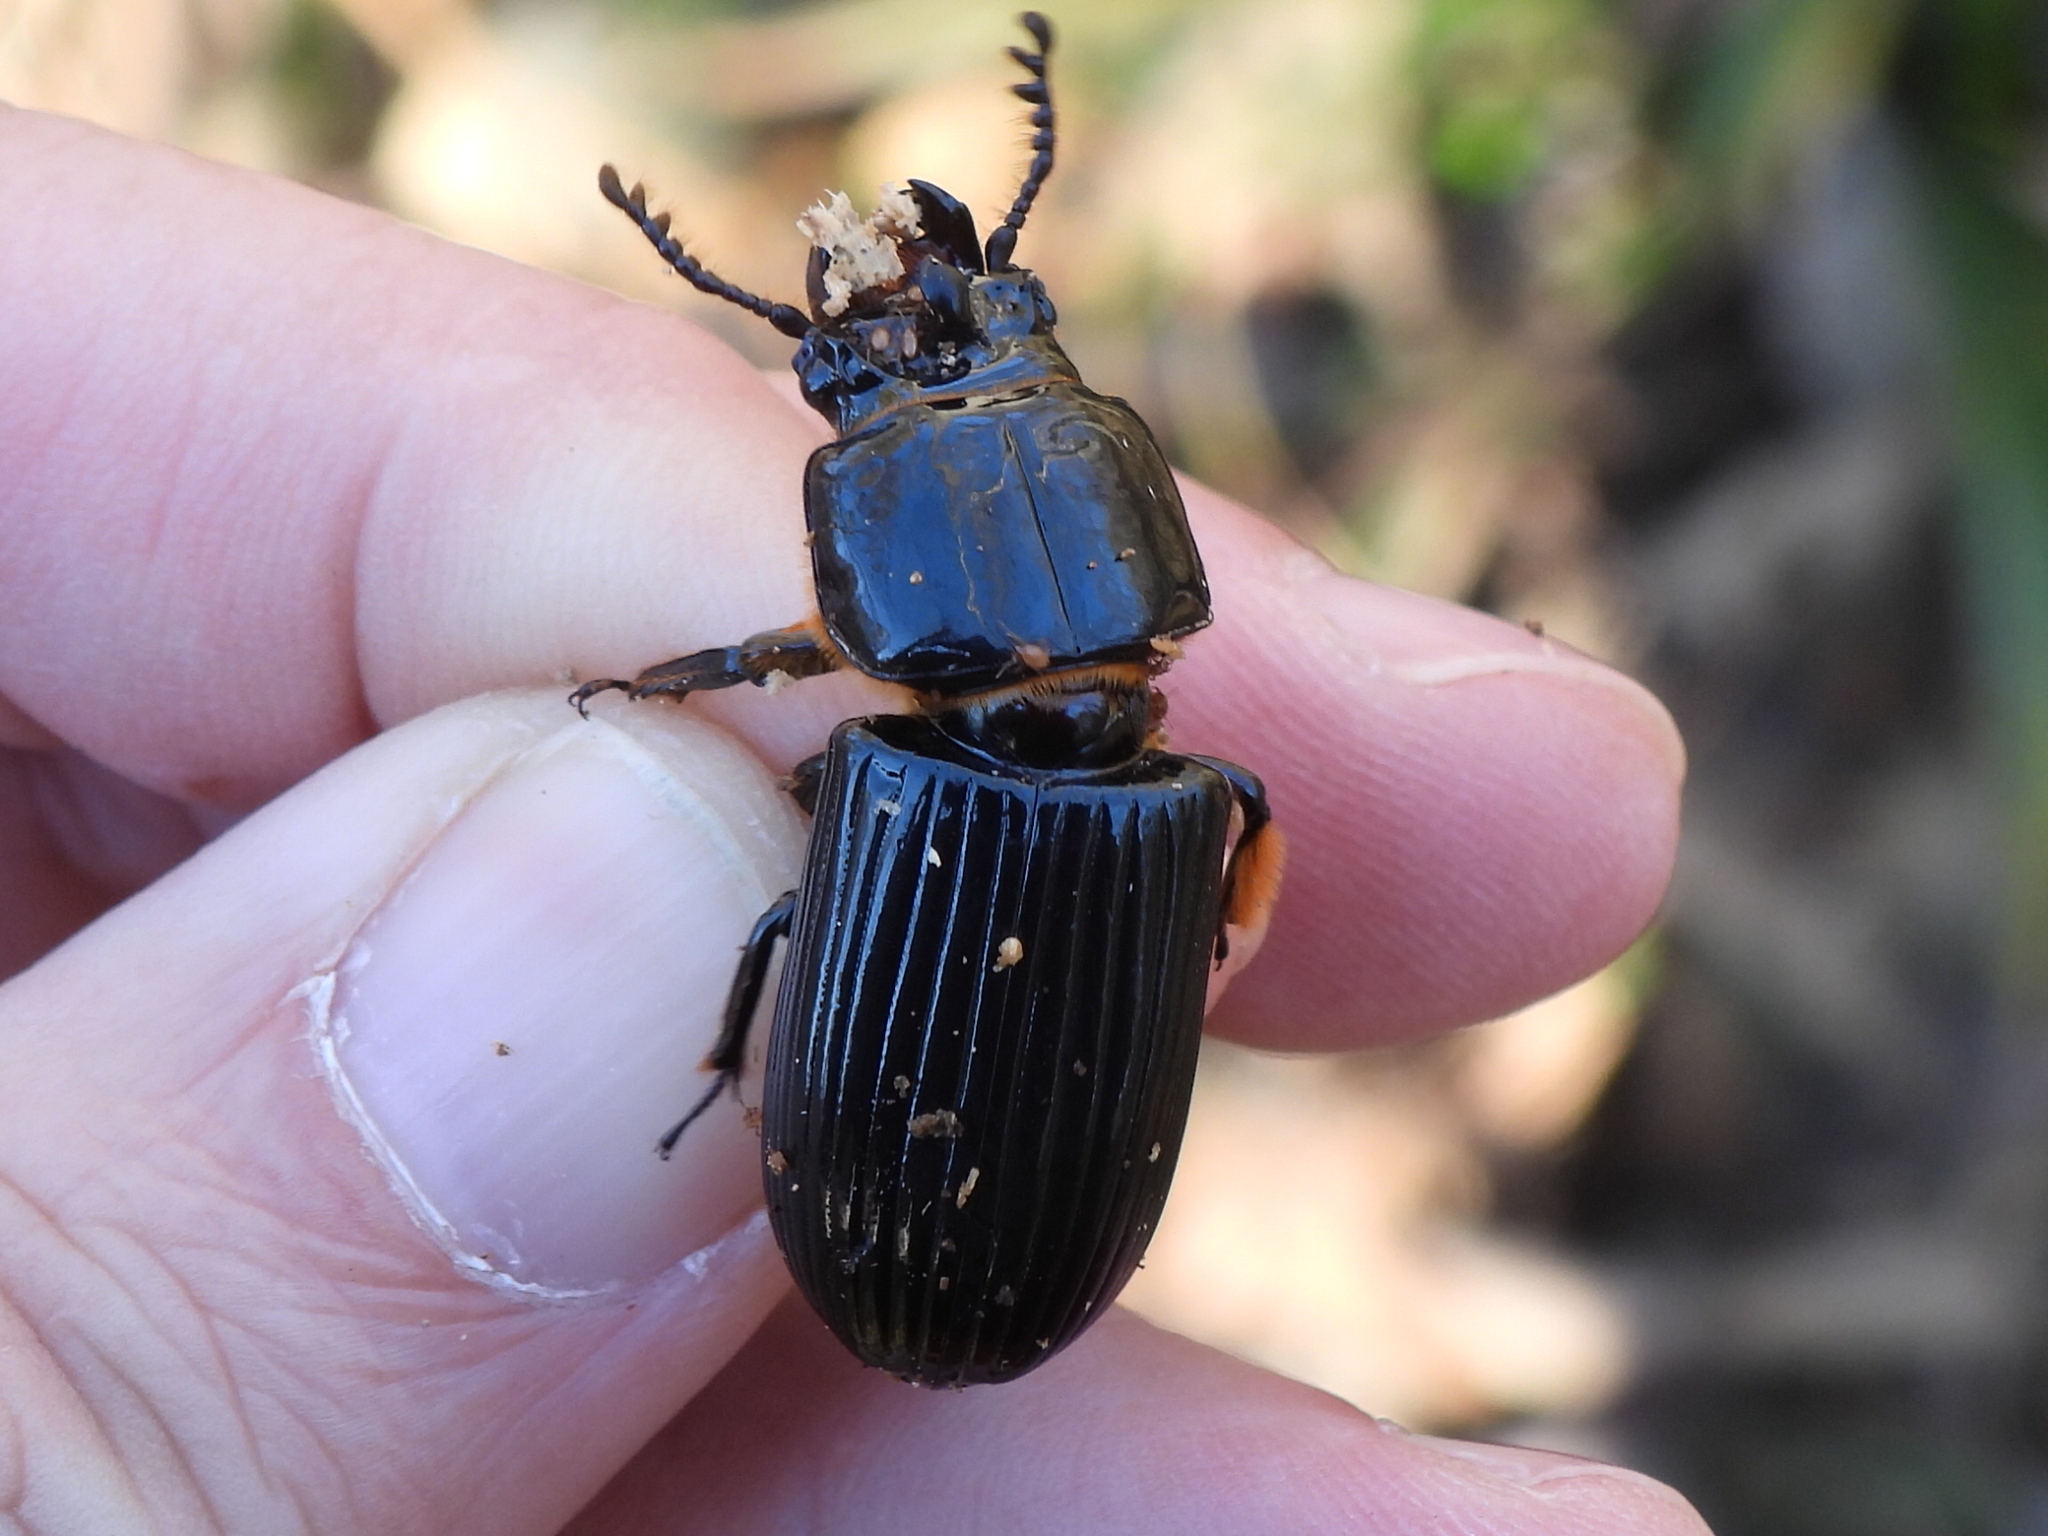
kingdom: Animalia
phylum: Arthropoda
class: Insecta
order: Coleoptera
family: Passalidae
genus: Odontotaenius
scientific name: Odontotaenius disjunctus
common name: Patent leather beetle
